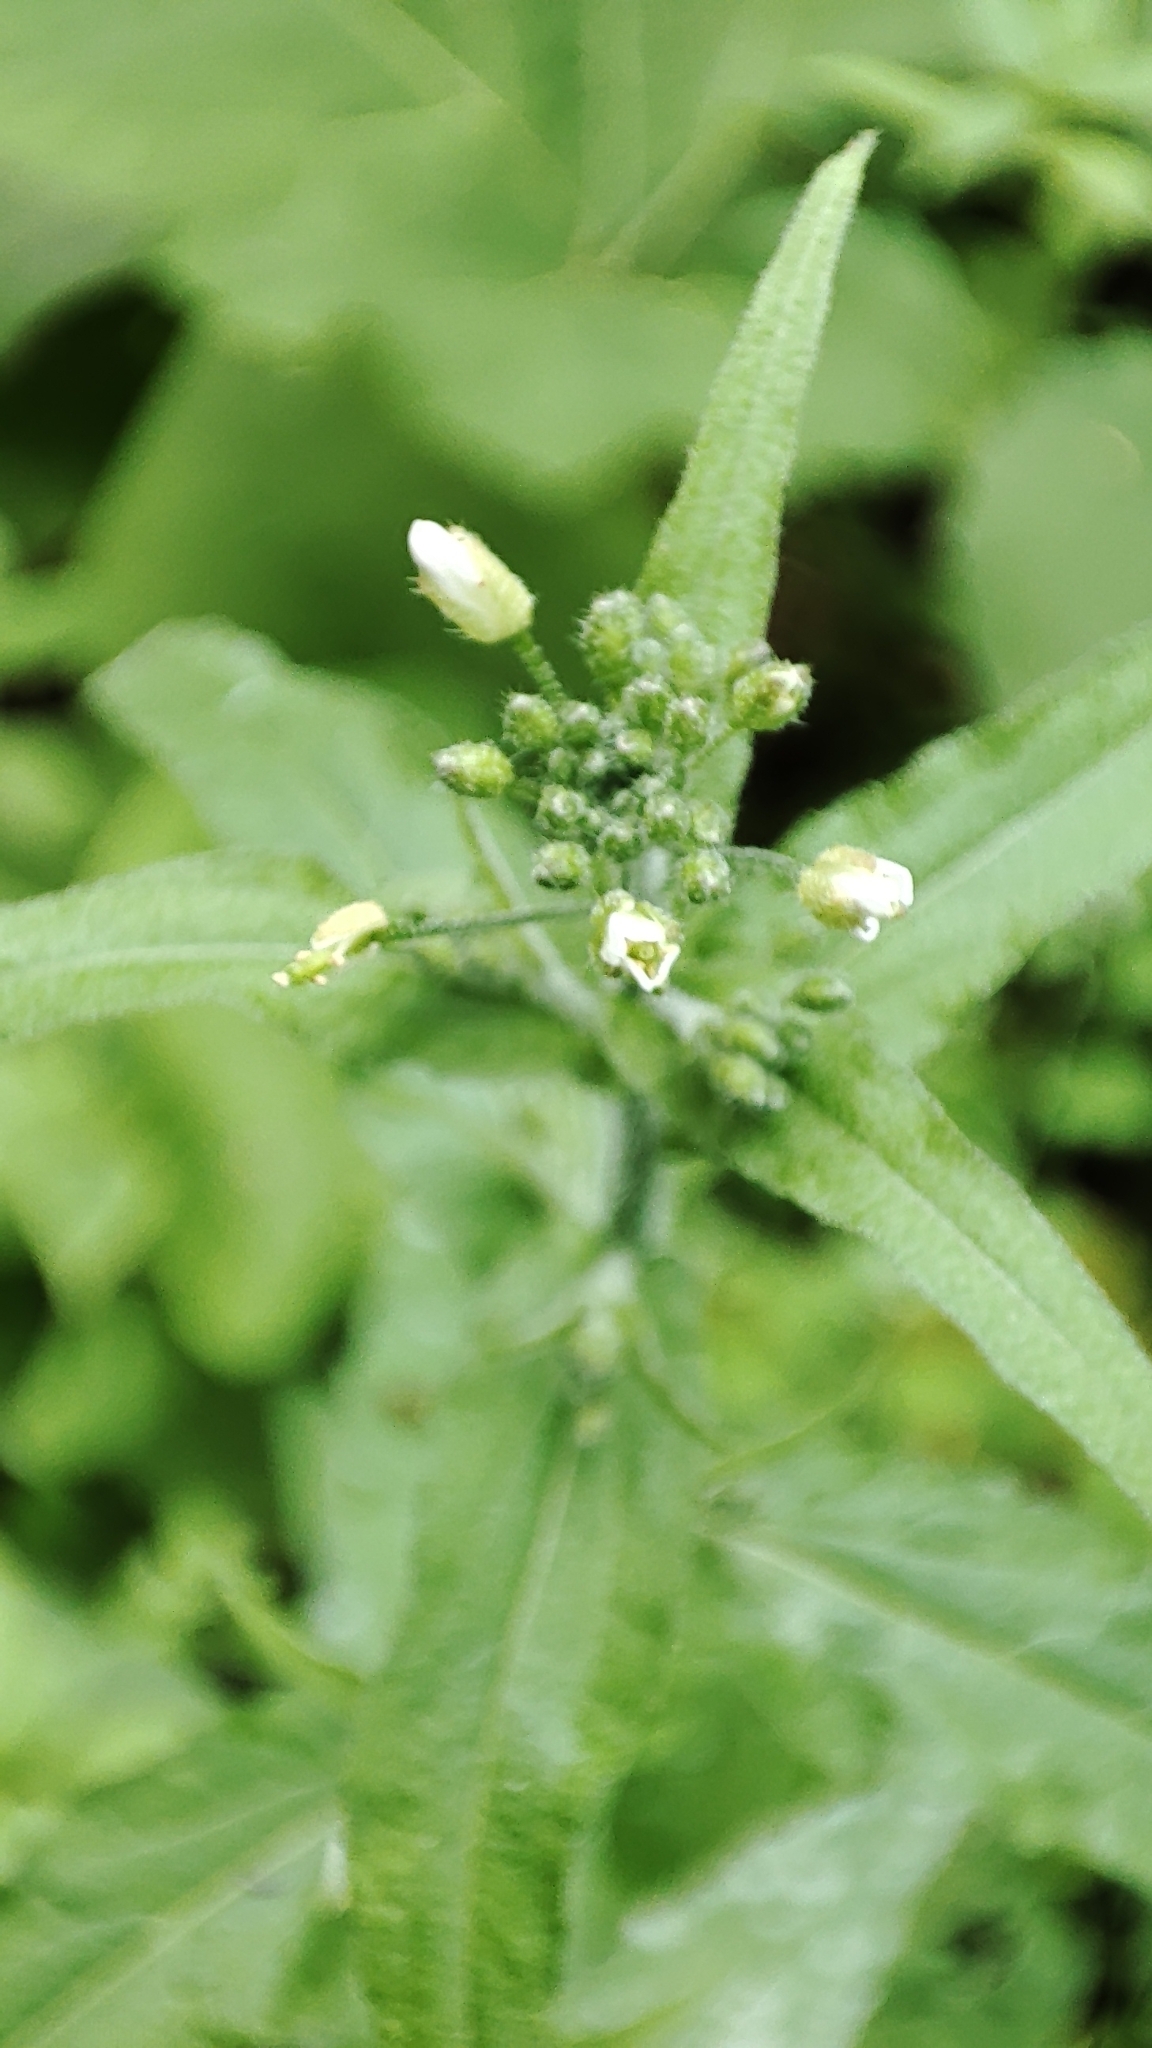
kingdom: Plantae
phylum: Tracheophyta
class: Magnoliopsida
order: Brassicales
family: Brassicaceae
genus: Catolobus
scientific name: Catolobus pendulus
